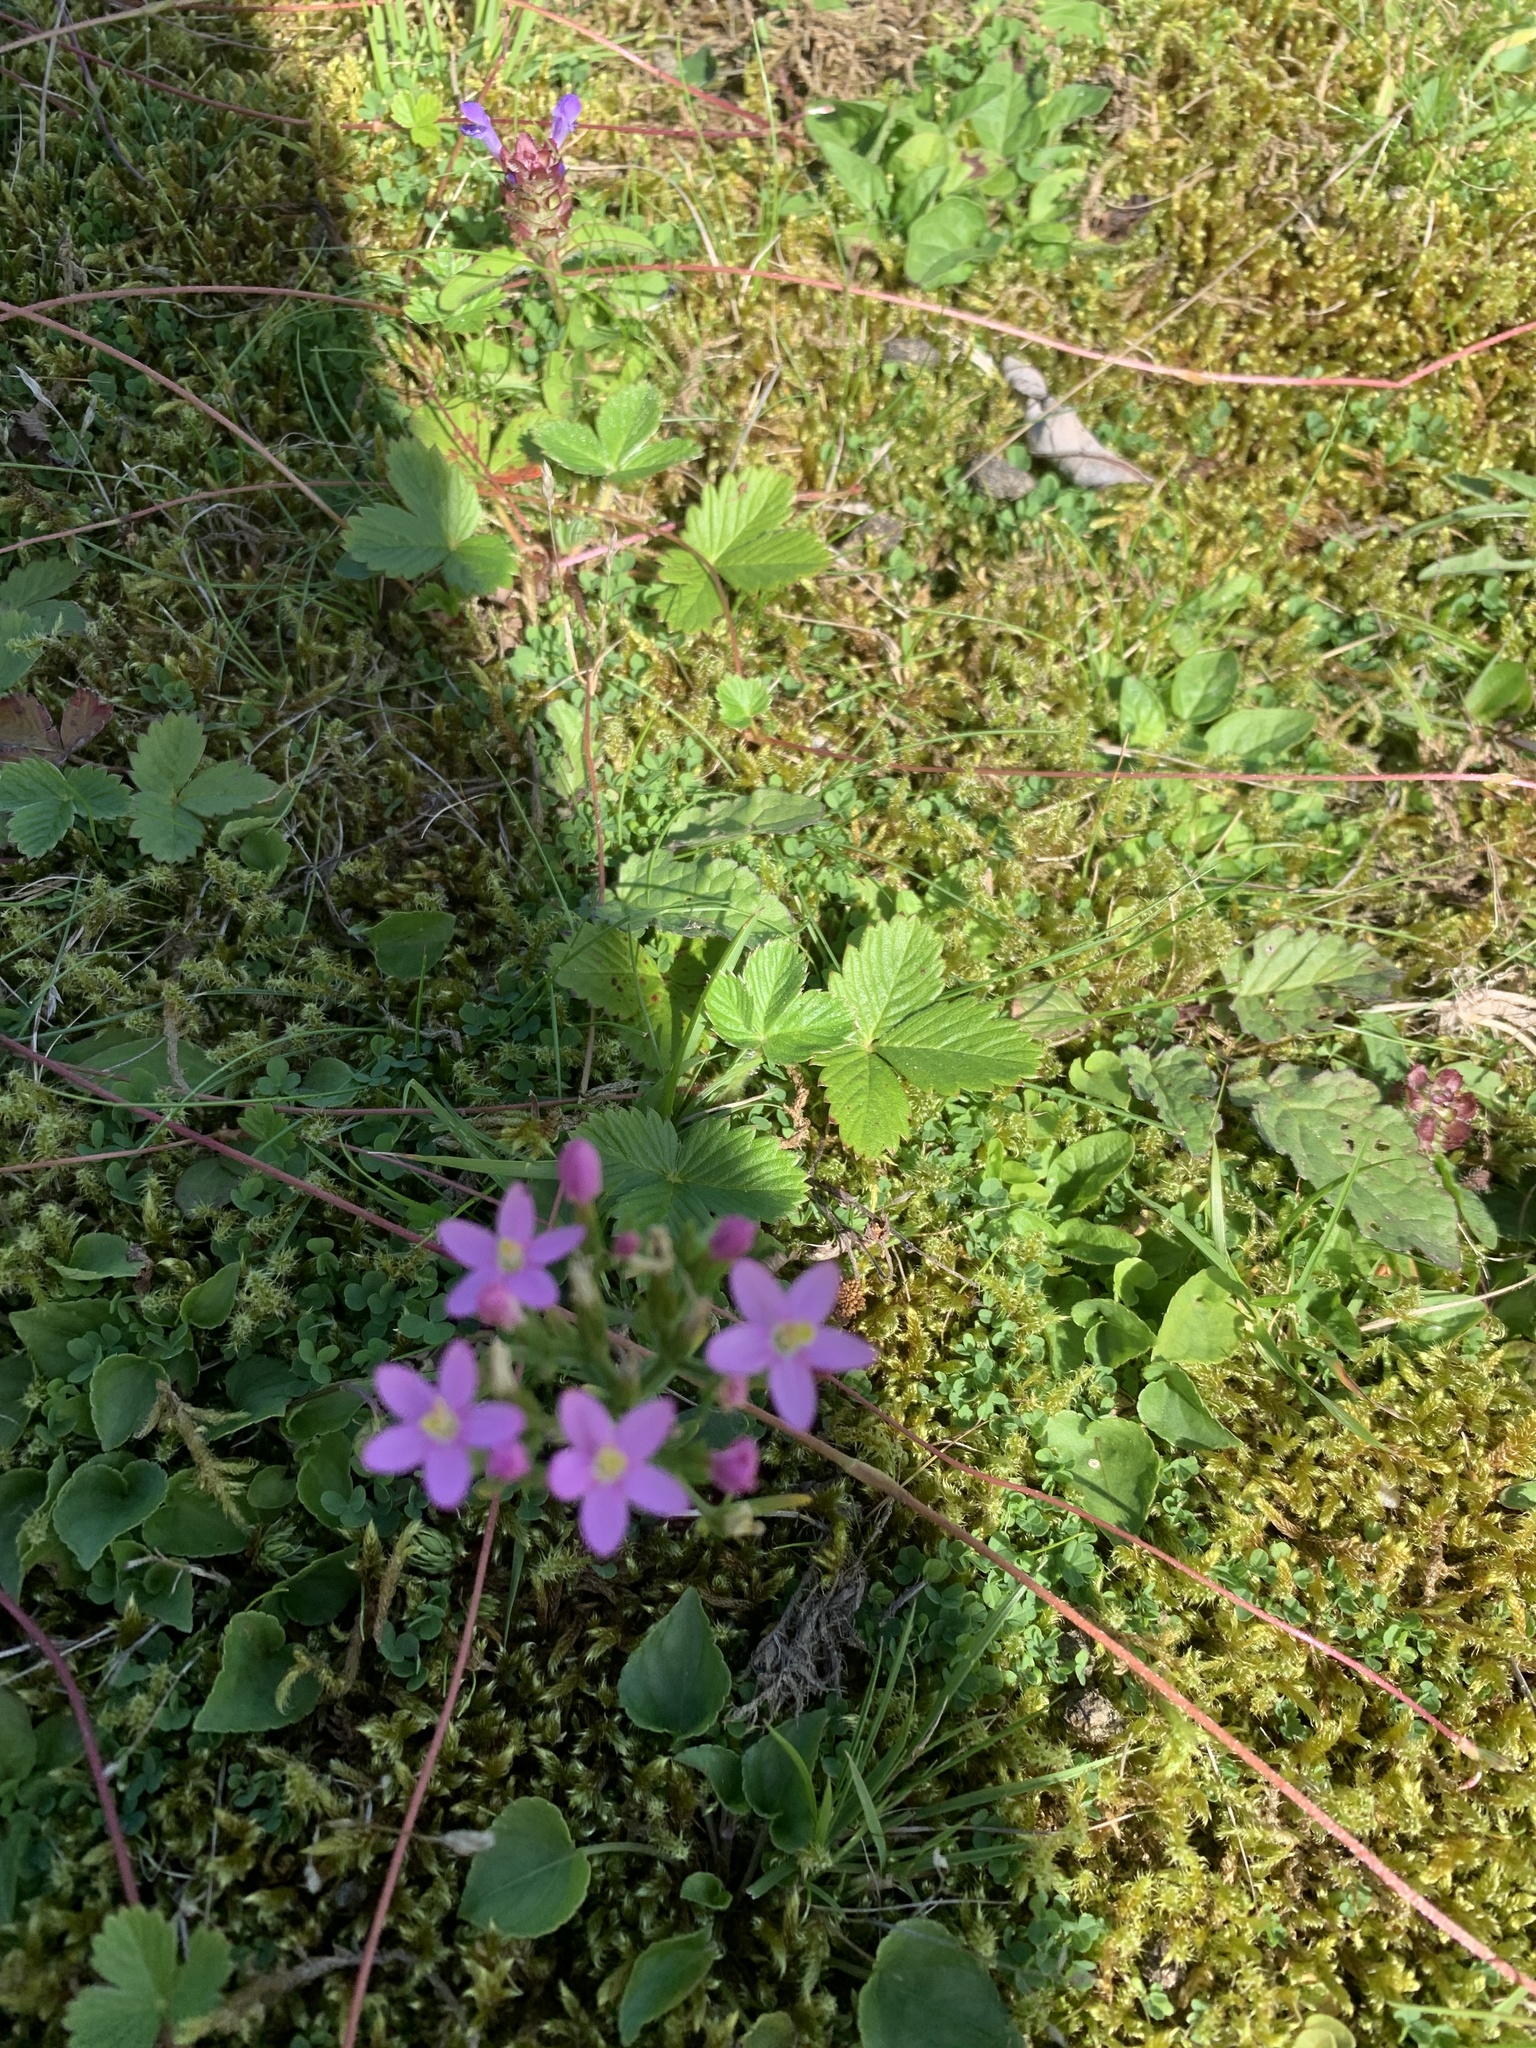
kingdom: Plantae
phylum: Tracheophyta
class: Magnoliopsida
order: Gentianales
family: Gentianaceae
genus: Centaurium
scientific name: Centaurium erythraea
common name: Common centaury
